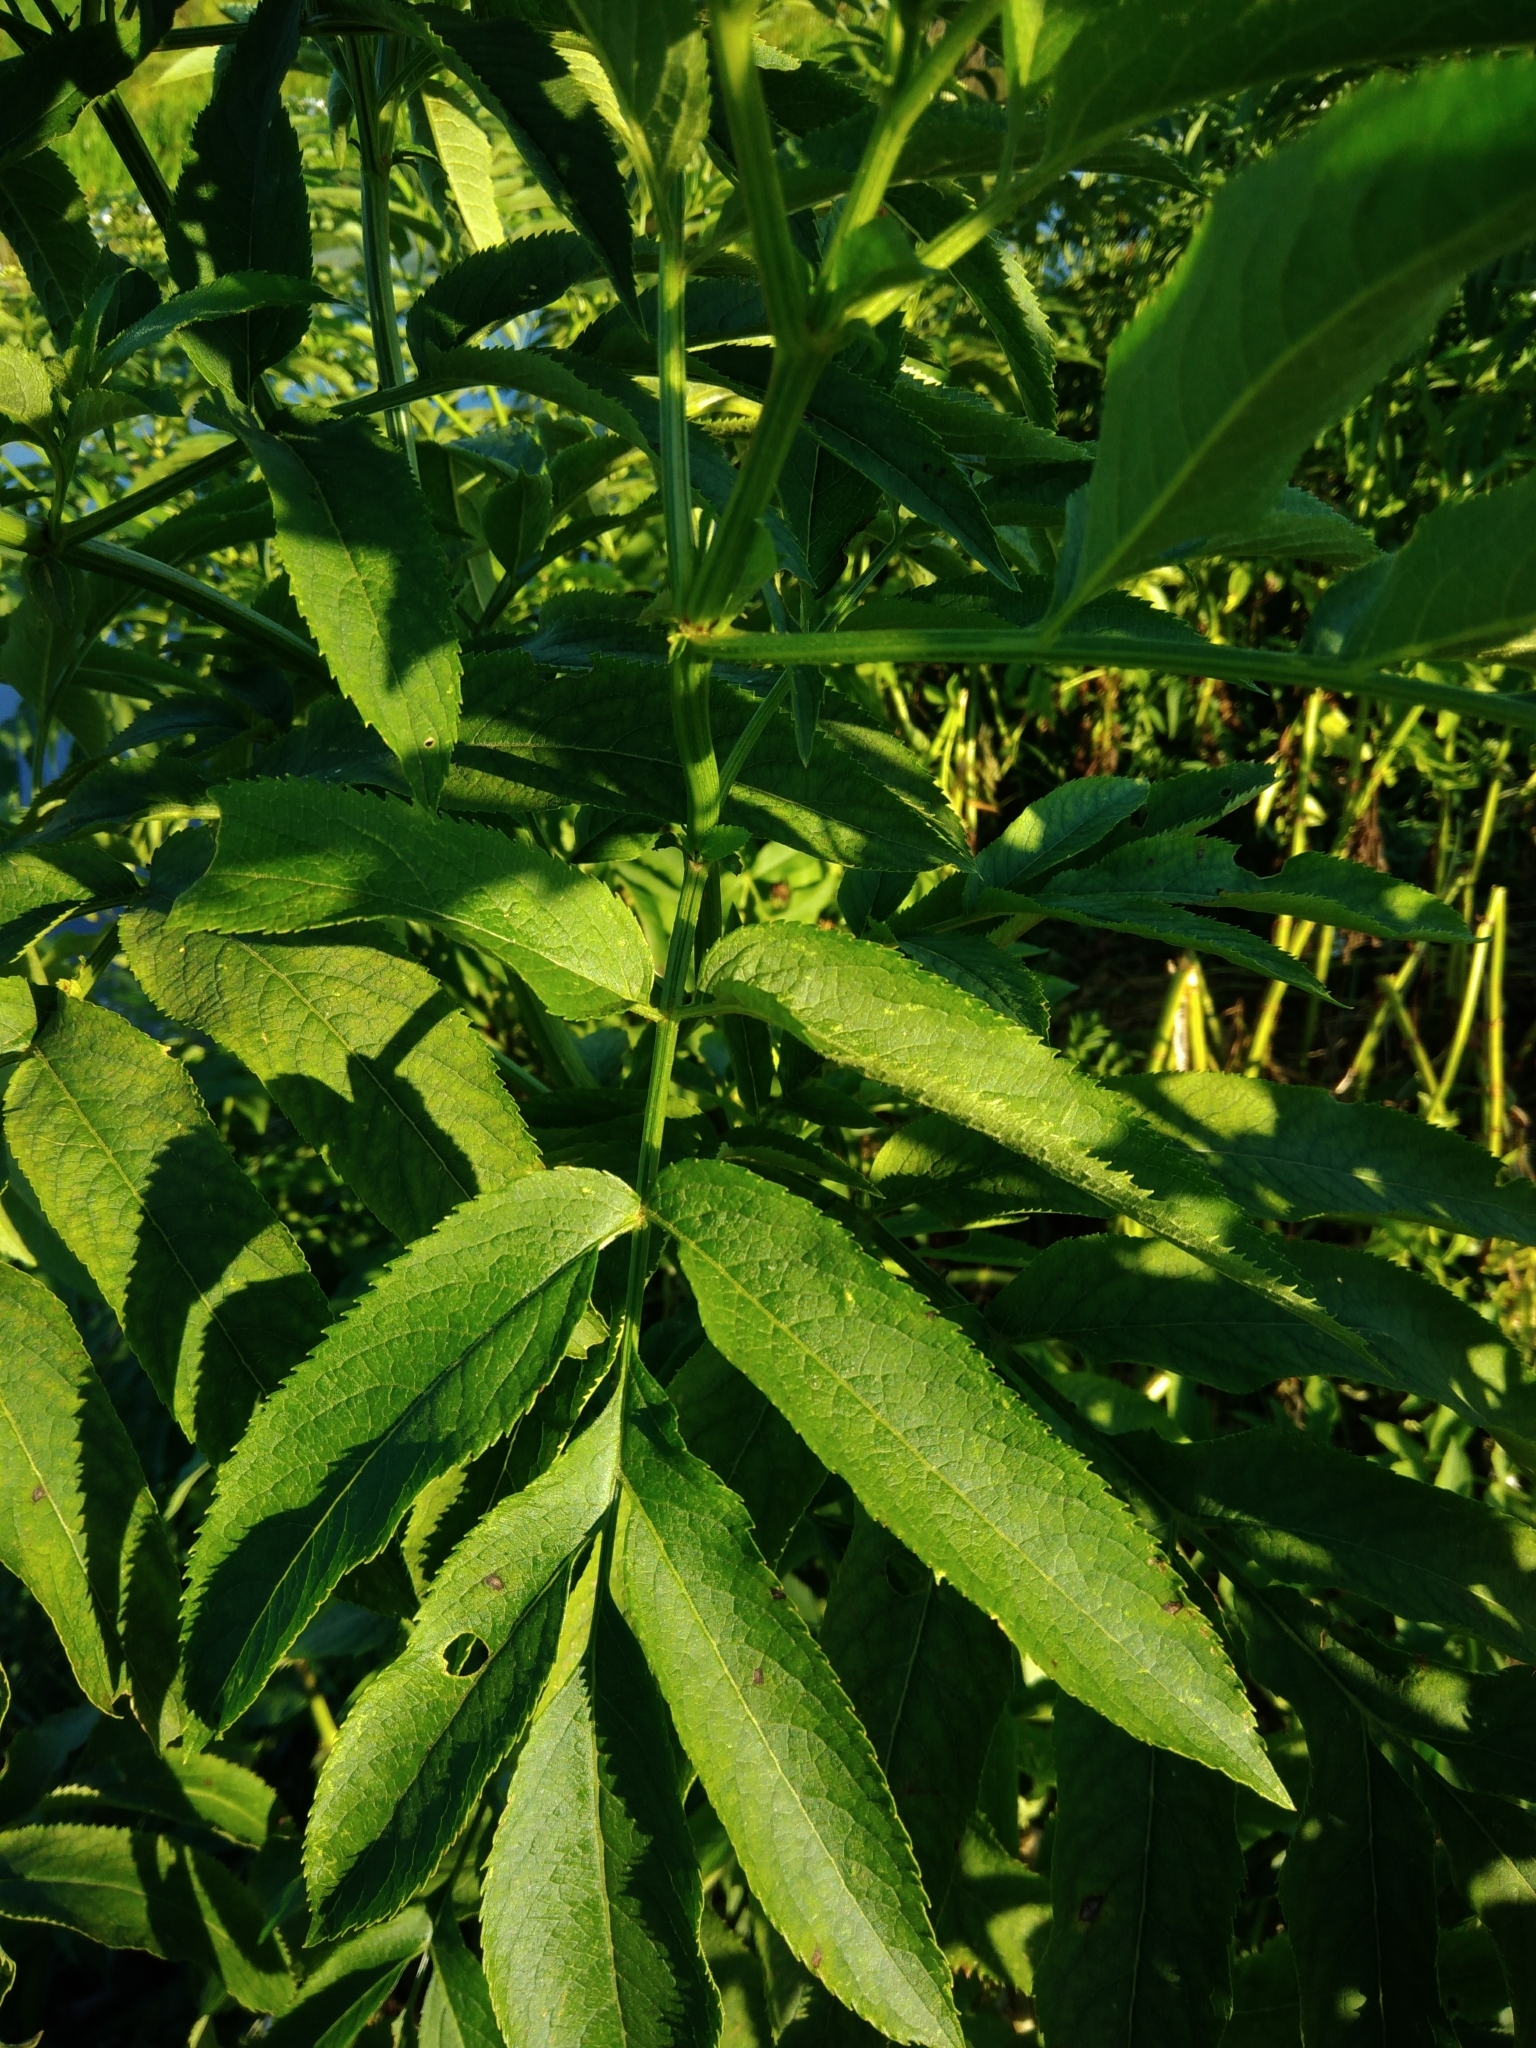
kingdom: Plantae
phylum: Tracheophyta
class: Magnoliopsida
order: Dipsacales
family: Viburnaceae
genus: Sambucus
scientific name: Sambucus ebulus
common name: Dwarf elder
